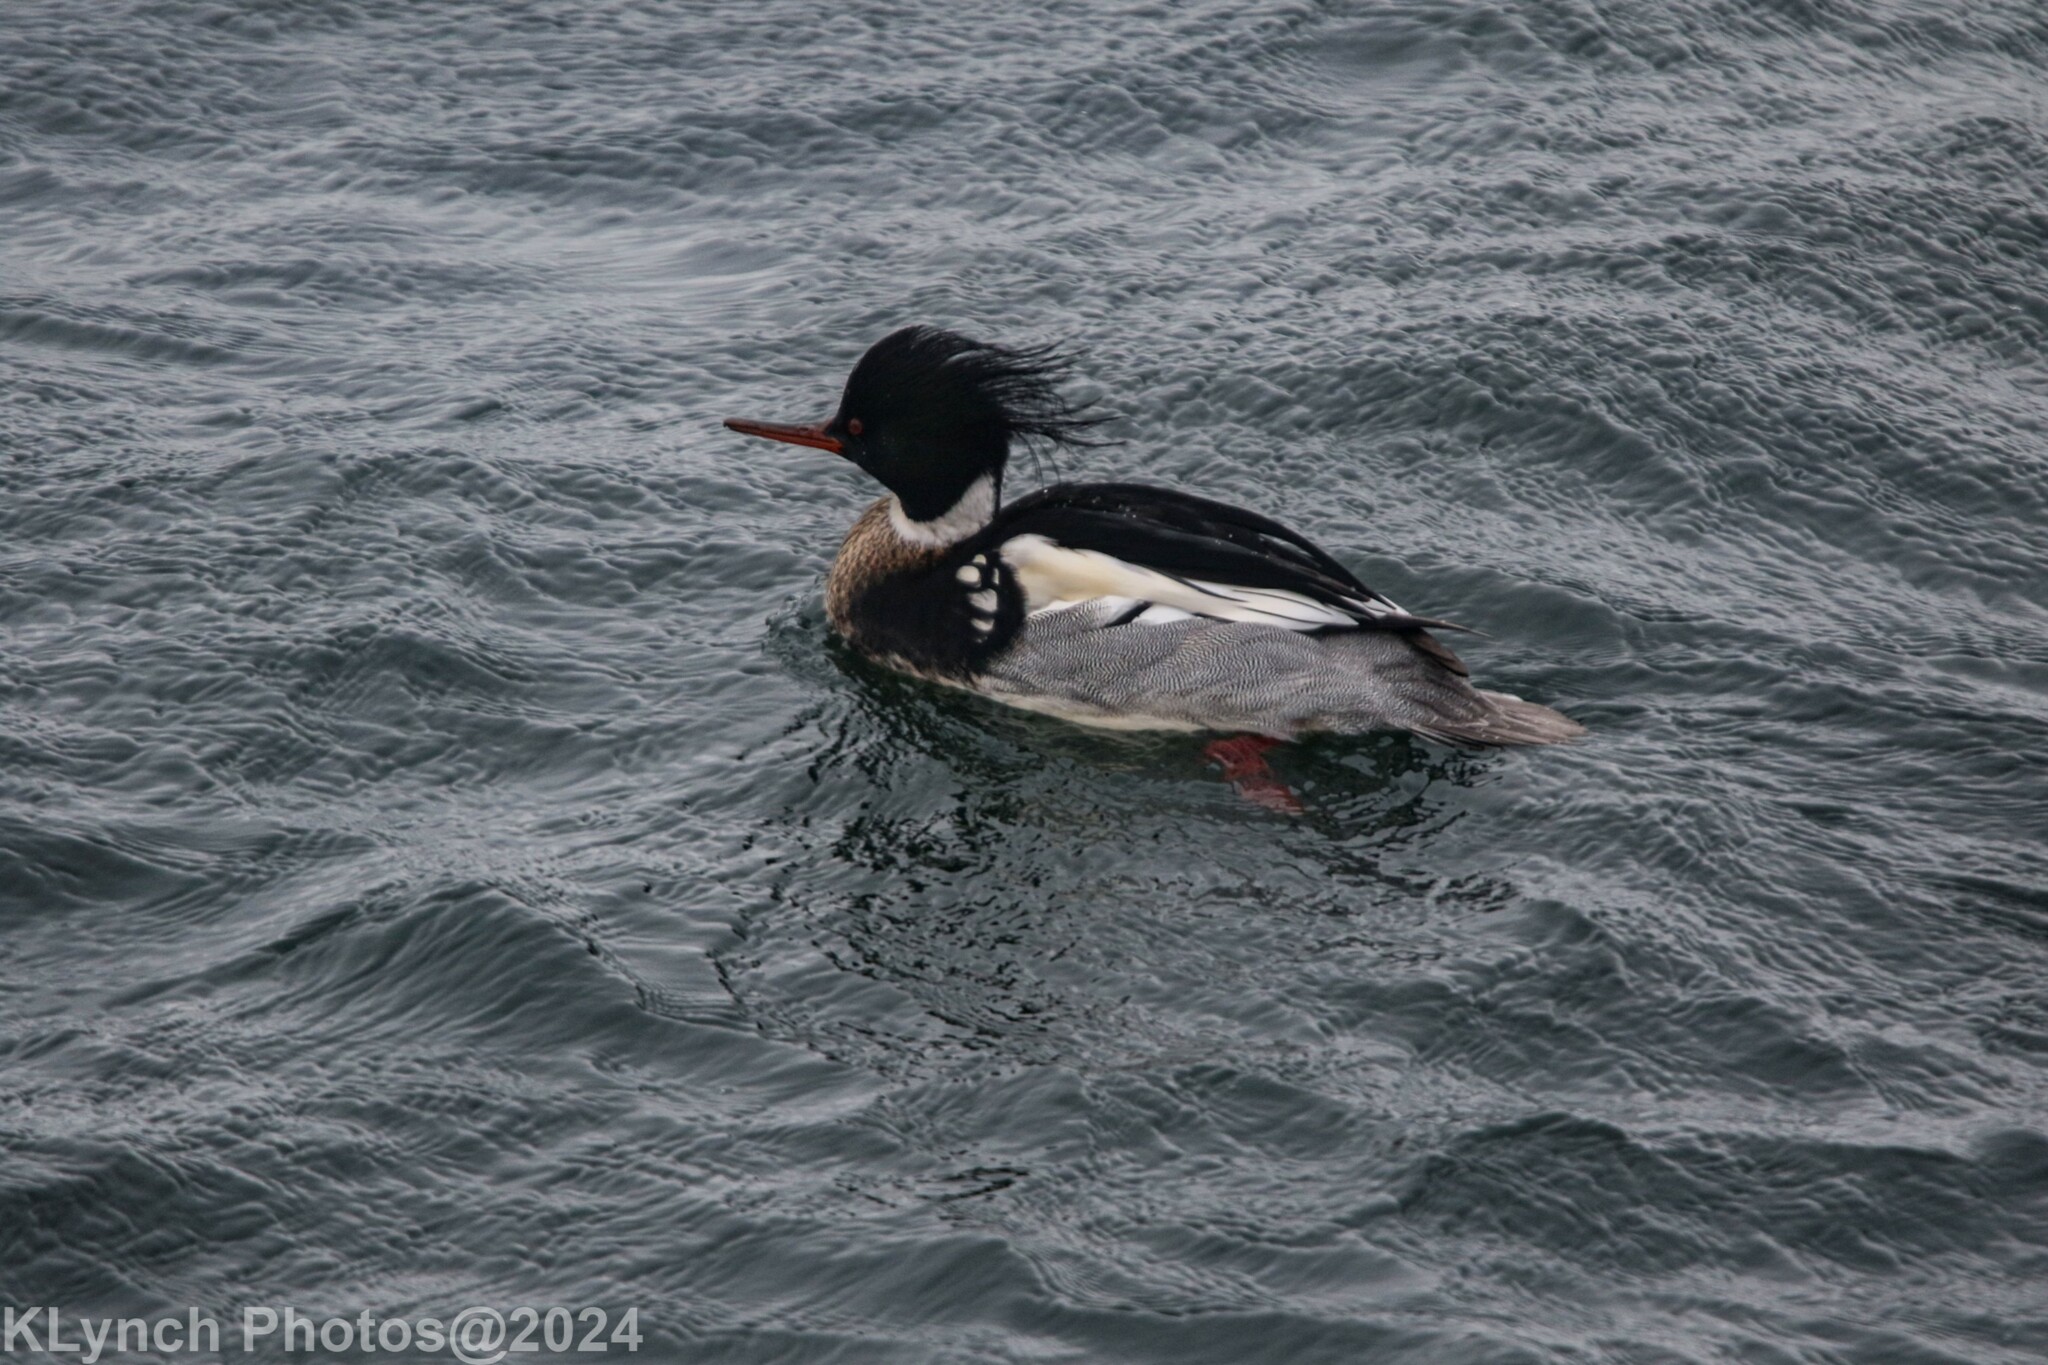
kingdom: Animalia
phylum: Chordata
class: Aves
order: Anseriformes
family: Anatidae
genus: Mergus
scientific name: Mergus serrator
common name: Red-breasted merganser
